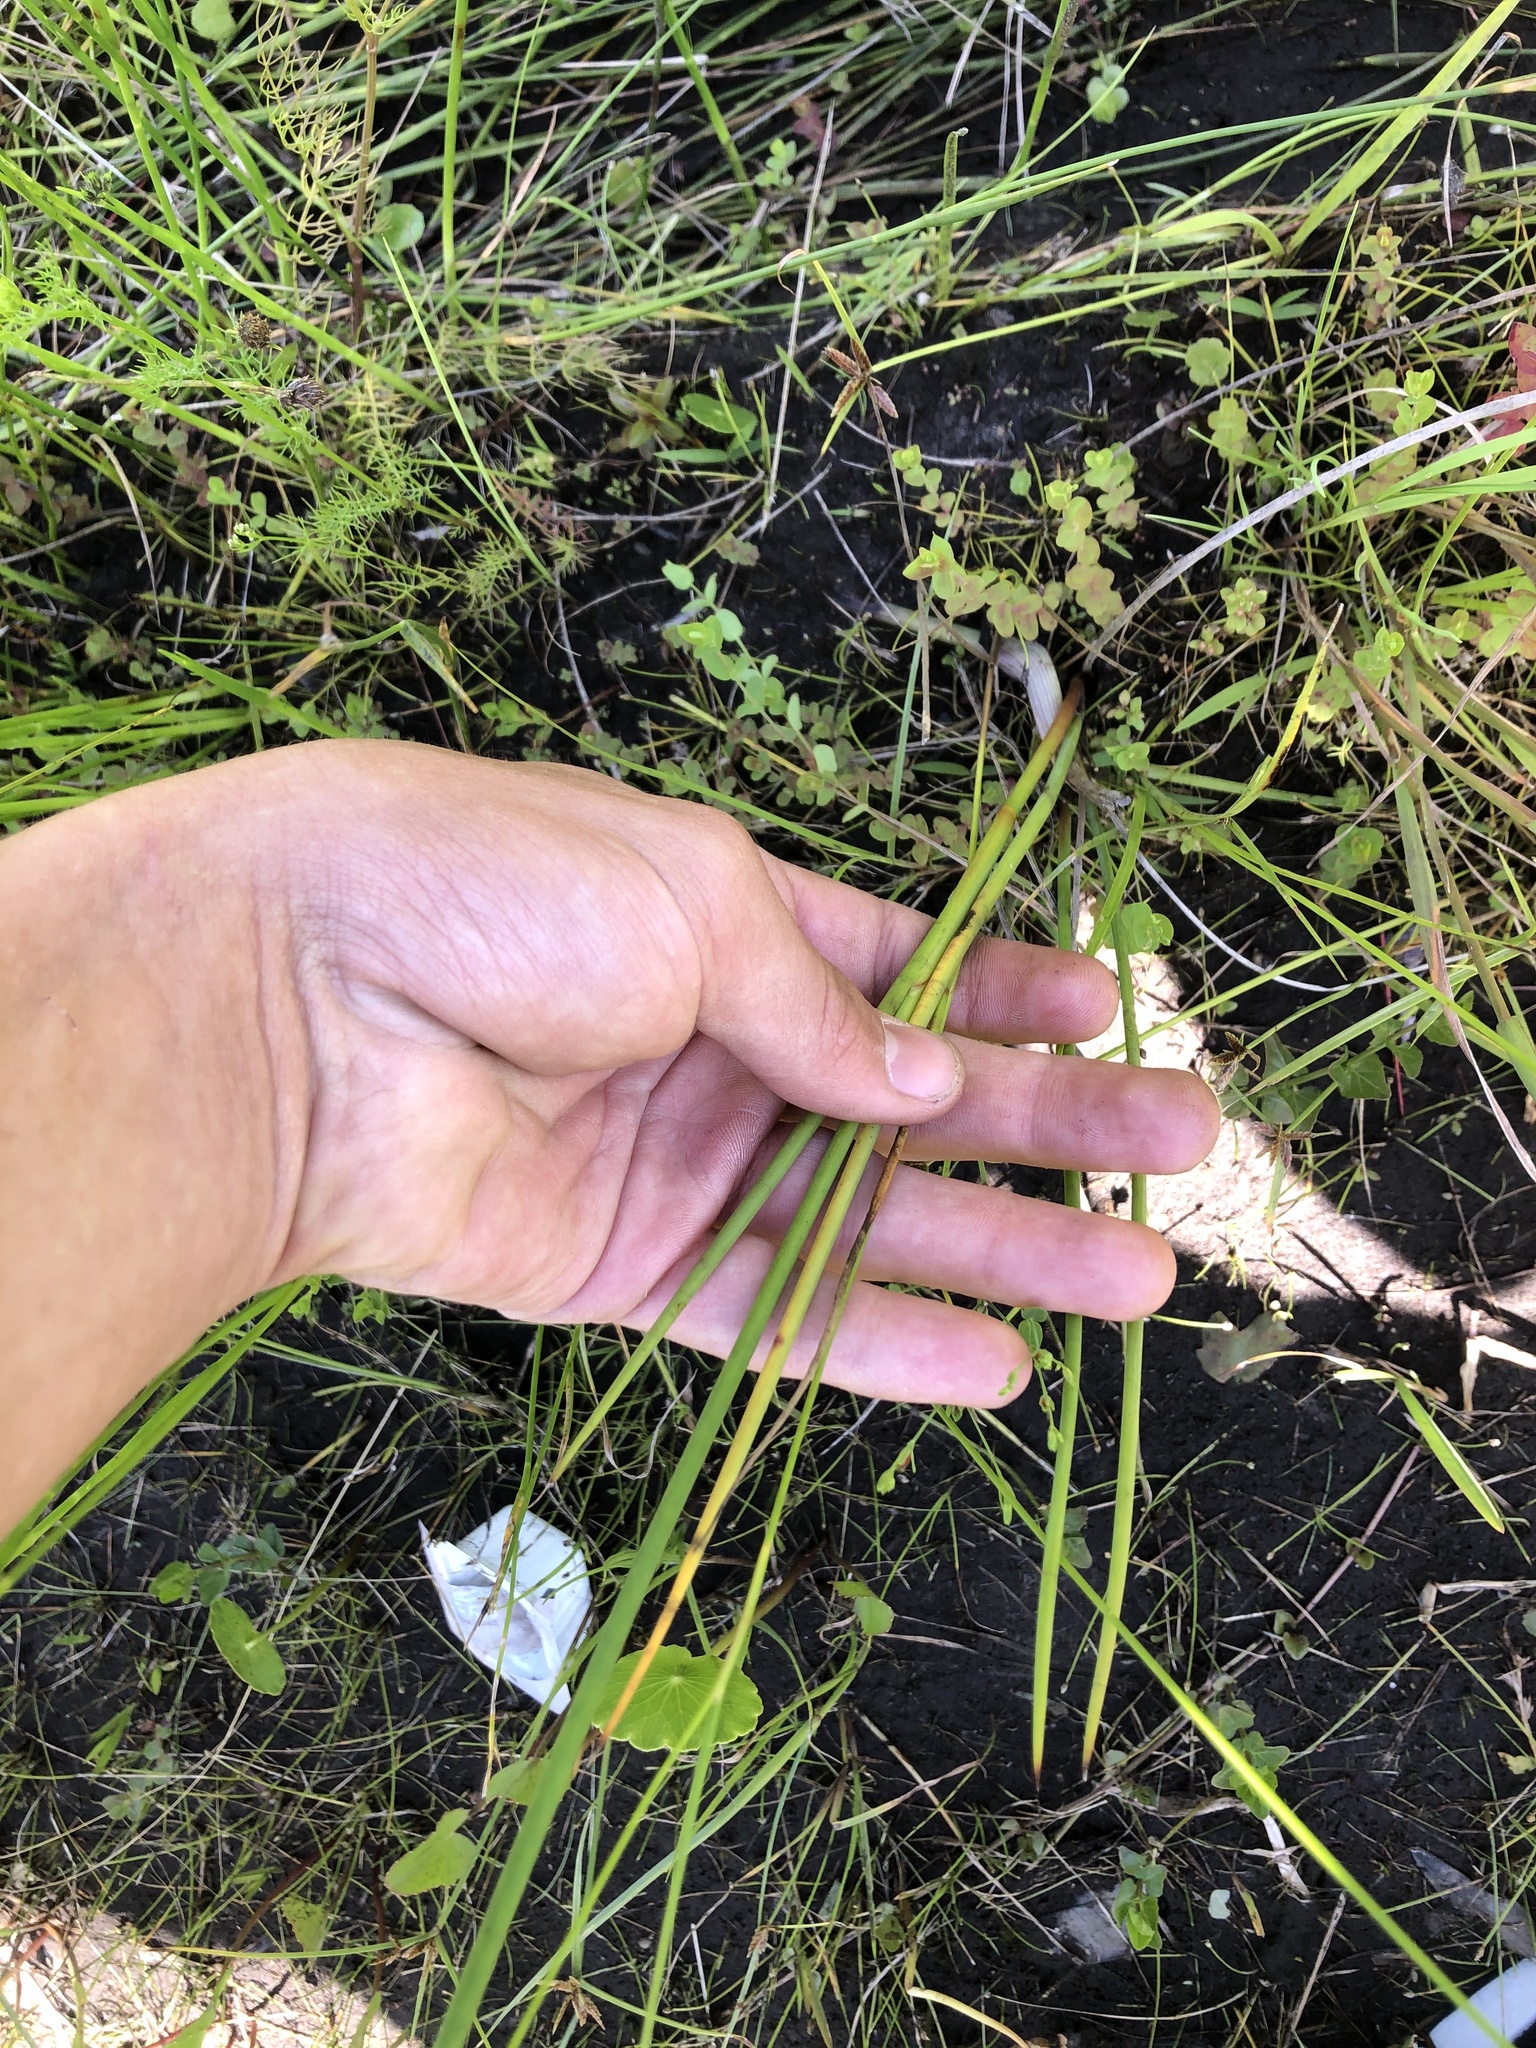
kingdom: Plantae
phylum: Tracheophyta
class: Liliopsida
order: Poales
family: Juncaceae
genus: Juncus
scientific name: Juncus megacephalus
